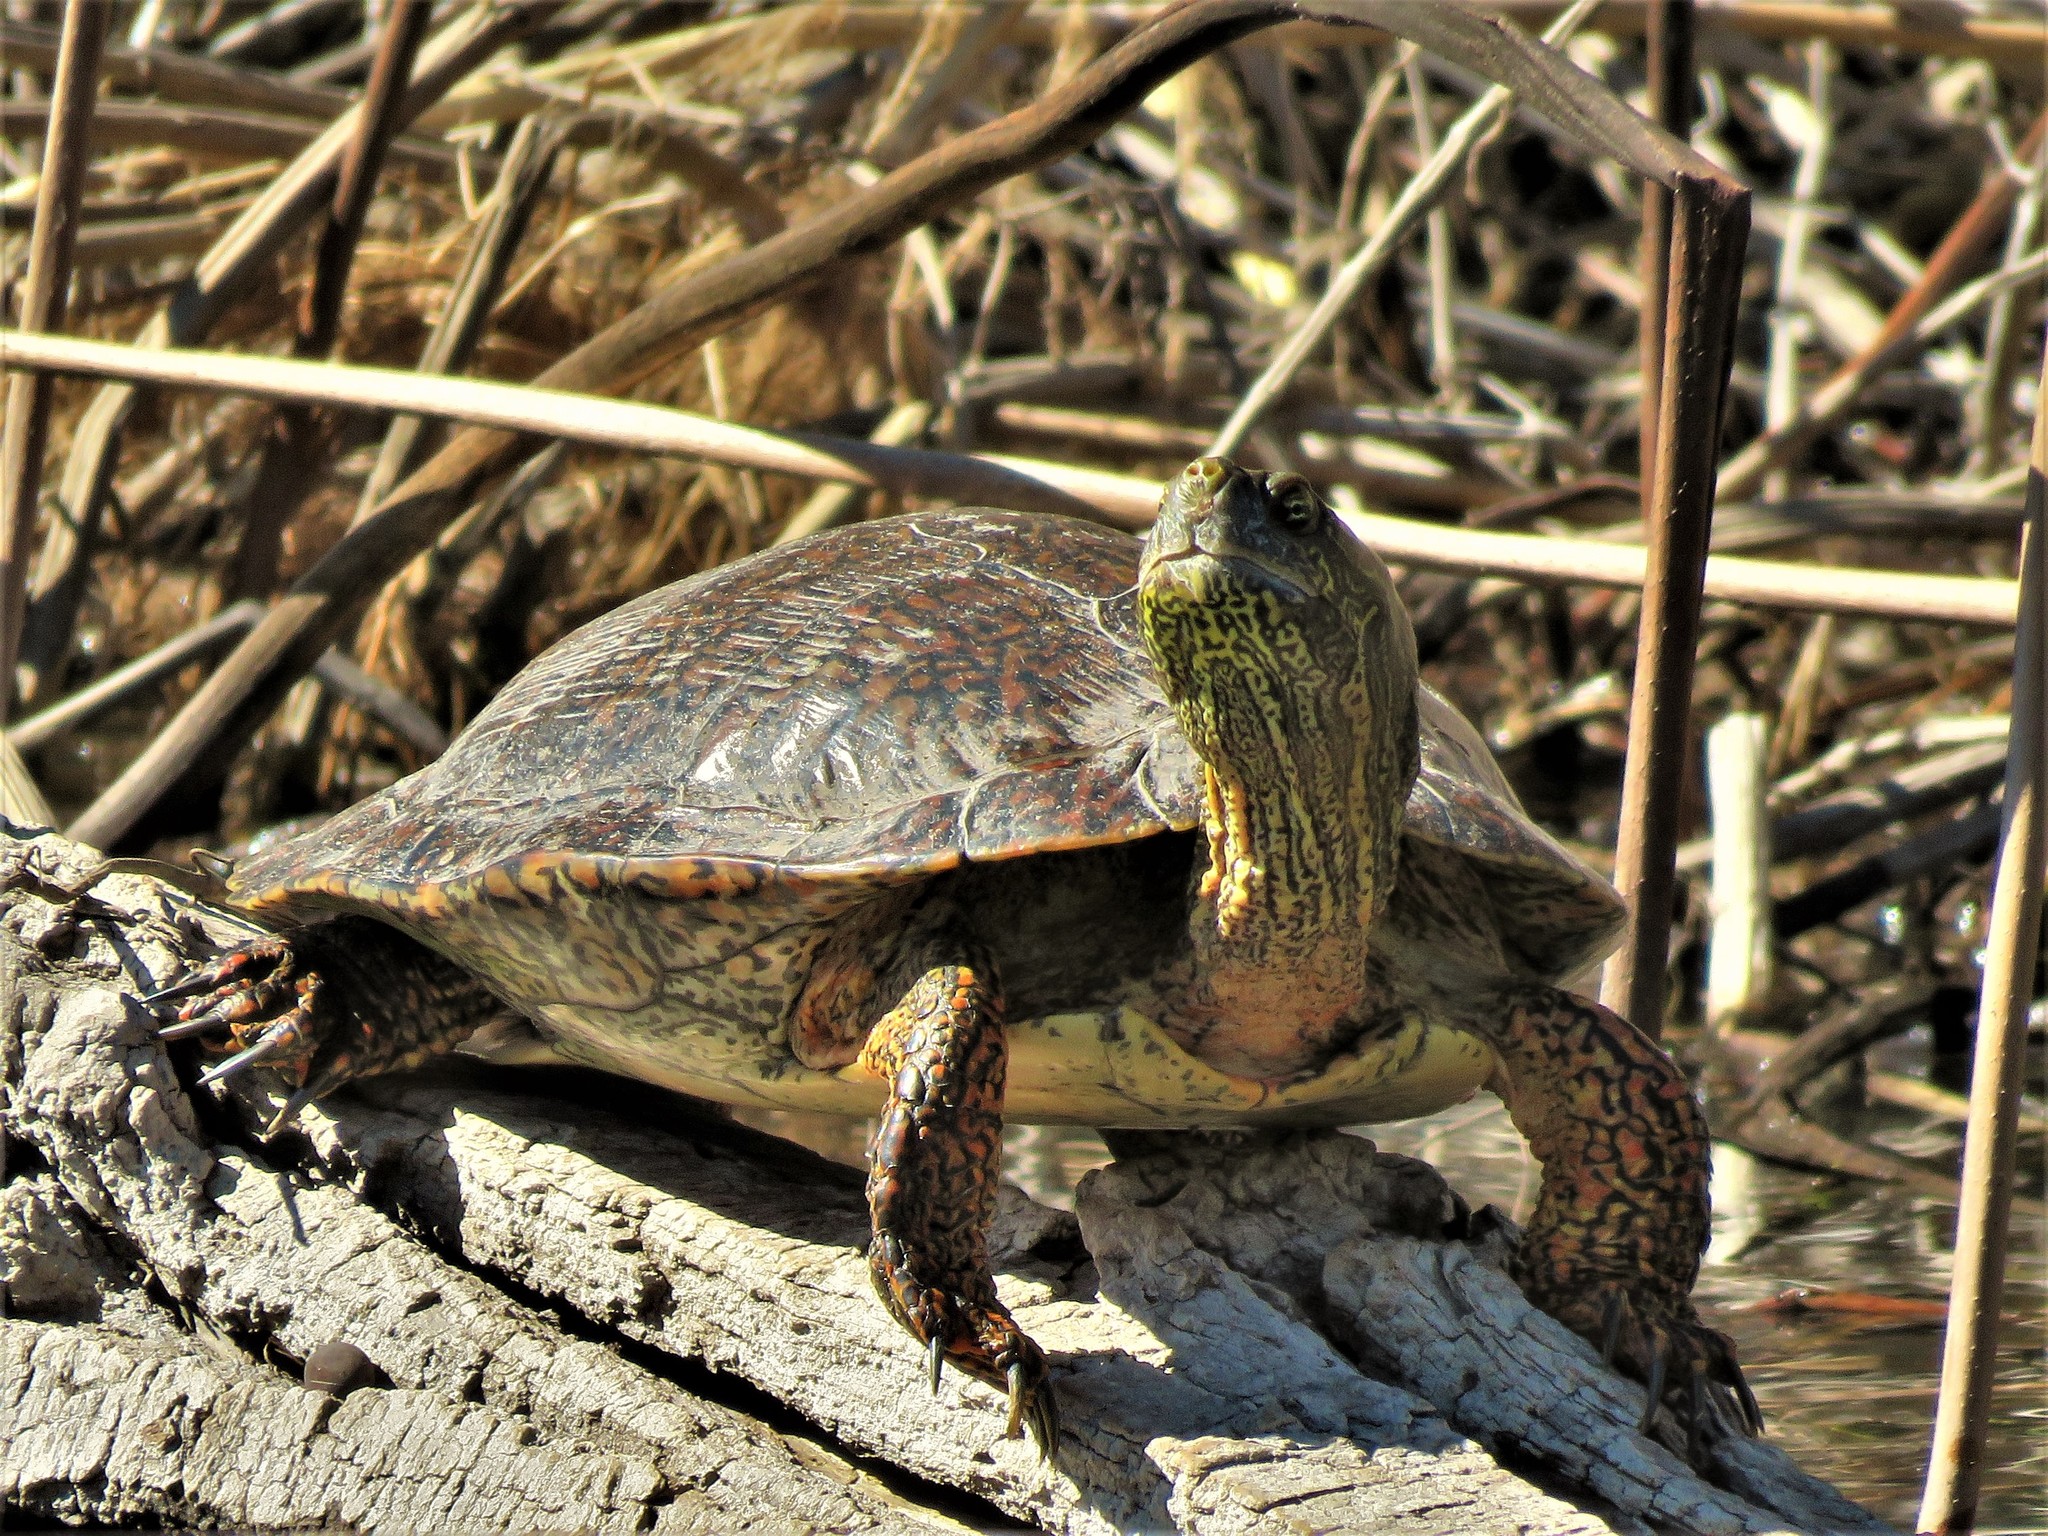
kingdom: Animalia
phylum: Chordata
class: Testudines
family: Emydidae
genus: Pseudemys
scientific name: Pseudemys texana
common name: Texas river cooter
